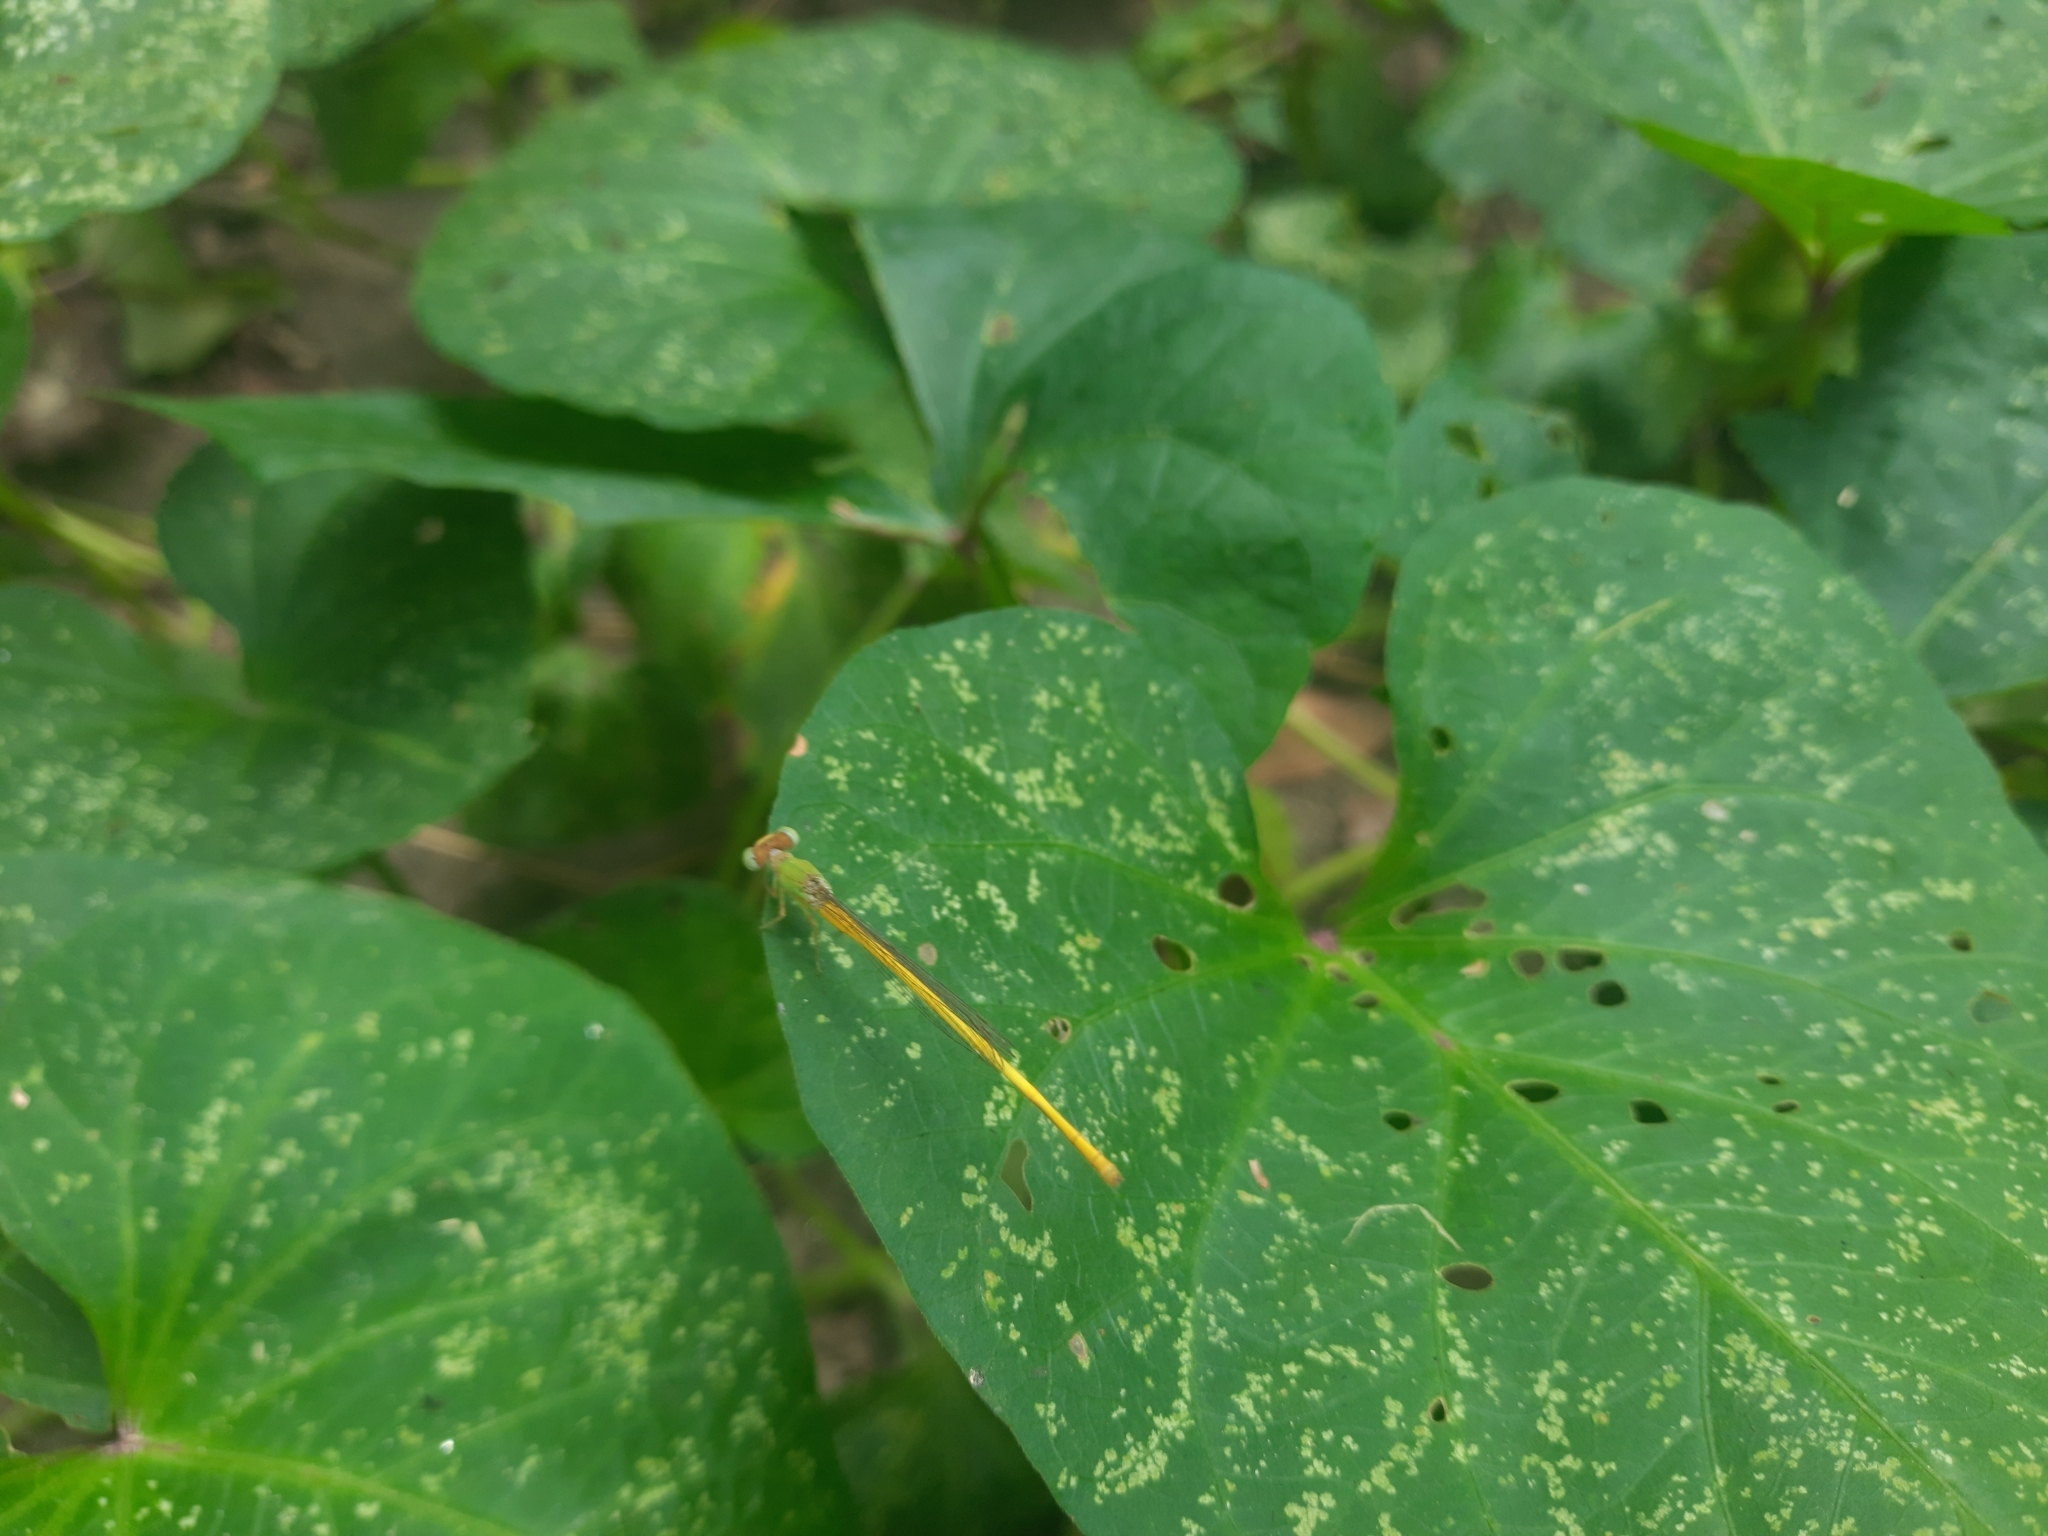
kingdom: Animalia
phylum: Arthropoda
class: Insecta
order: Odonata
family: Coenagrionidae
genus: Ceriagrion
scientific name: Ceriagrion coromandelianum
